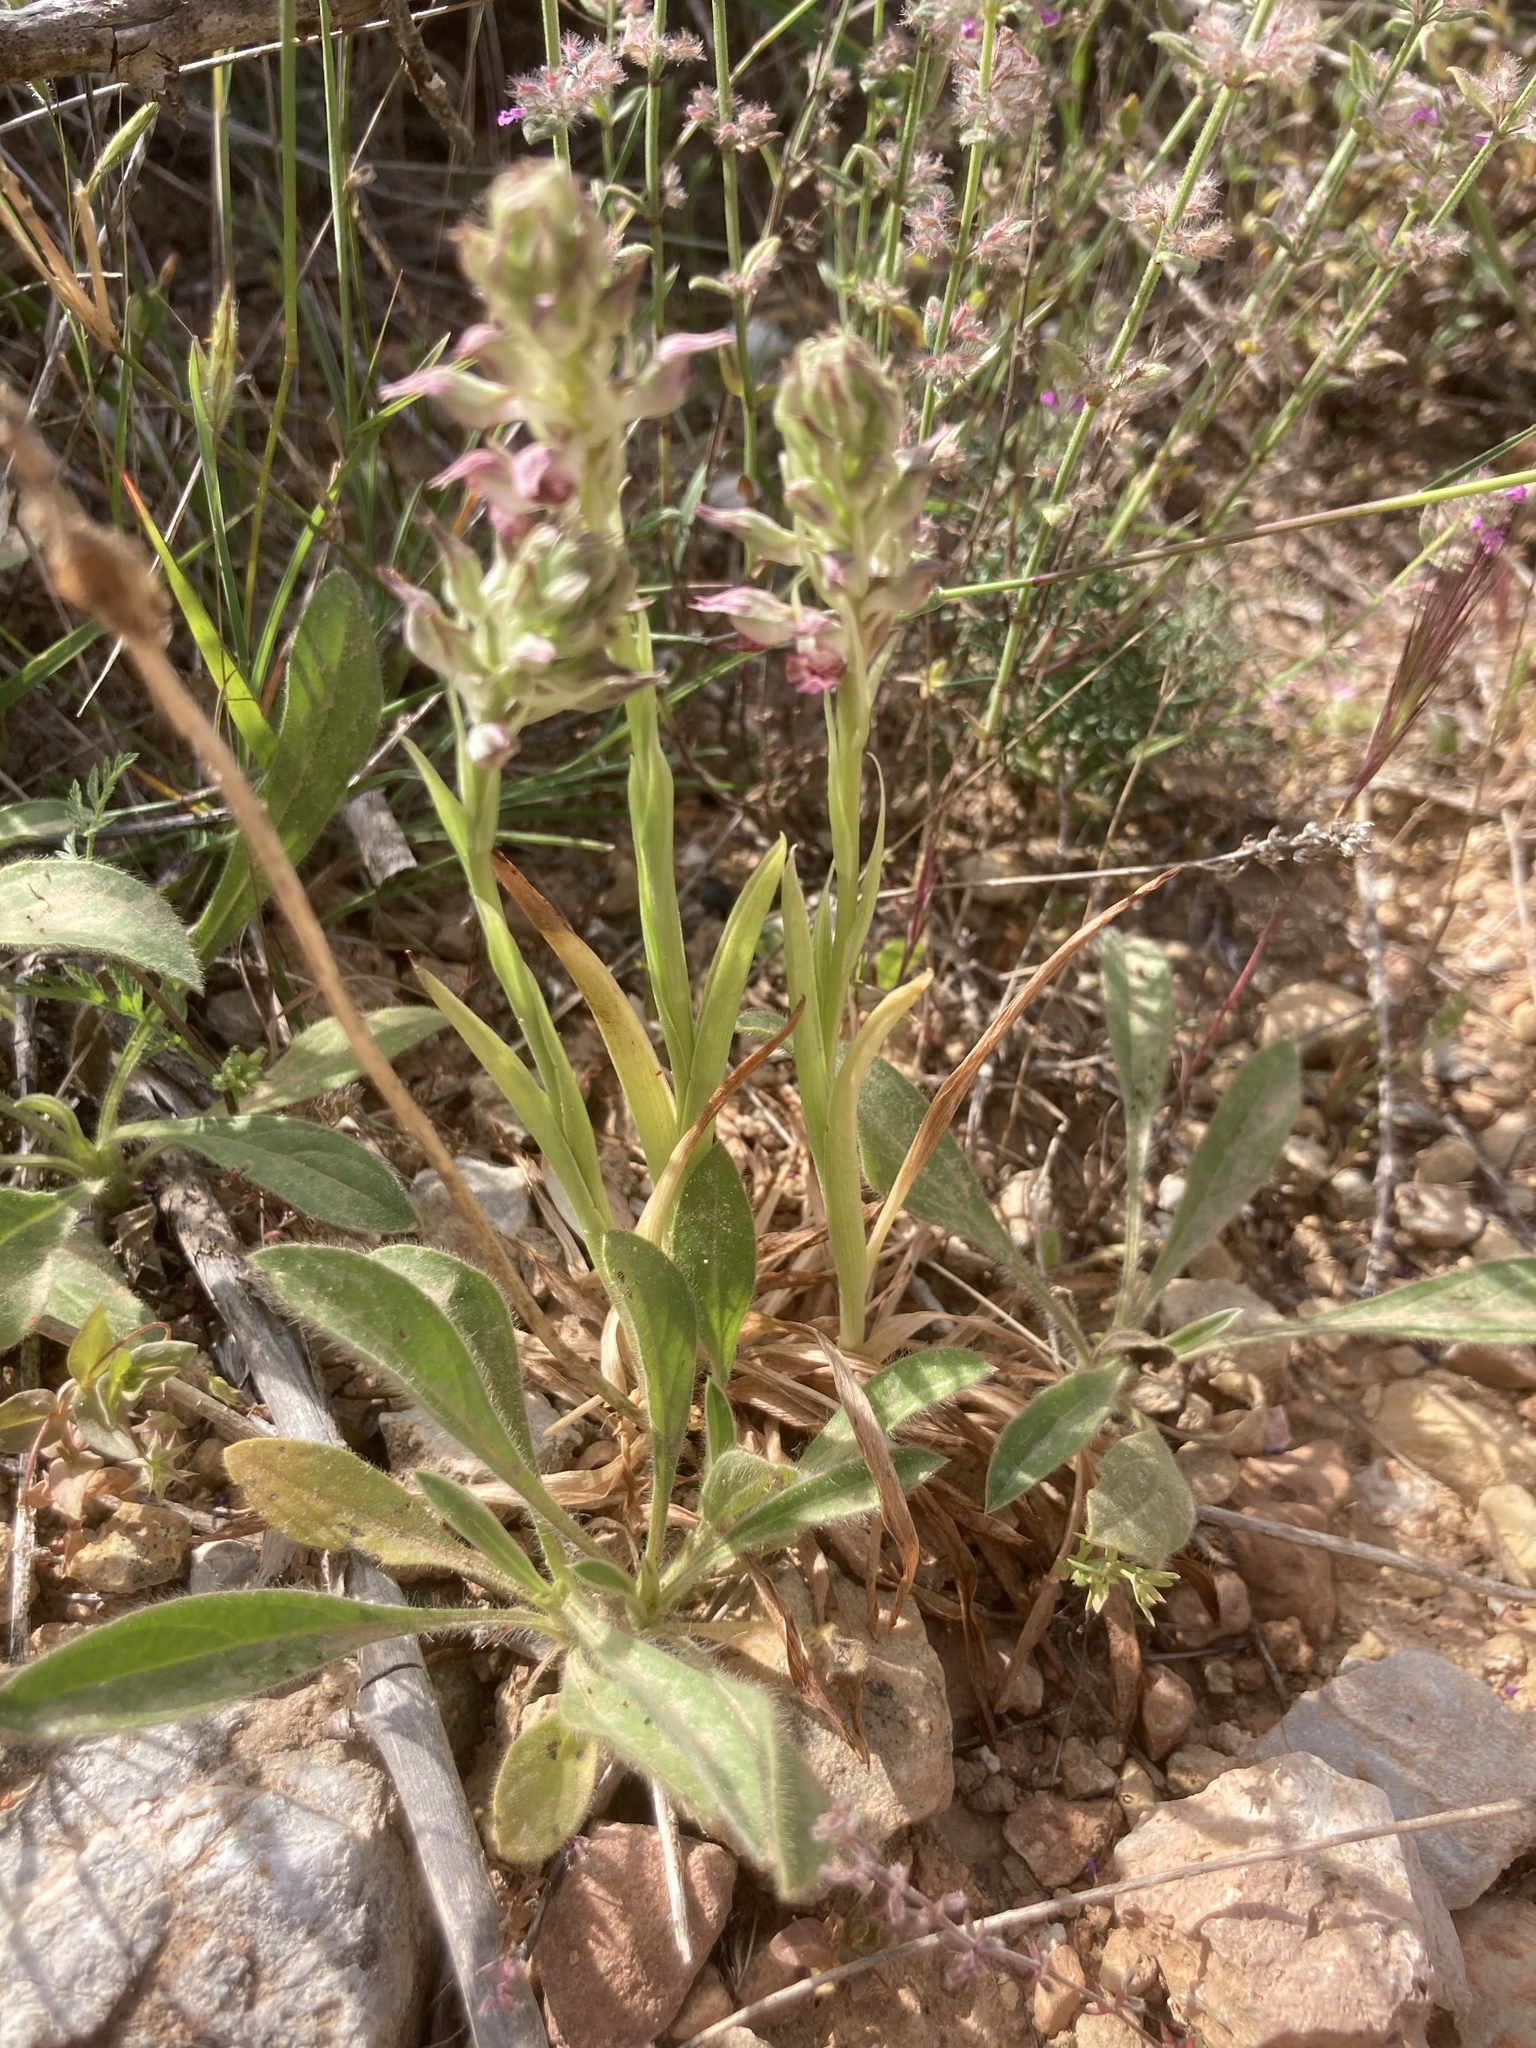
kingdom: Plantae
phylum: Tracheophyta
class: Liliopsida
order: Asparagales
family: Orchidaceae
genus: Anacamptis
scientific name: Anacamptis coriophora
